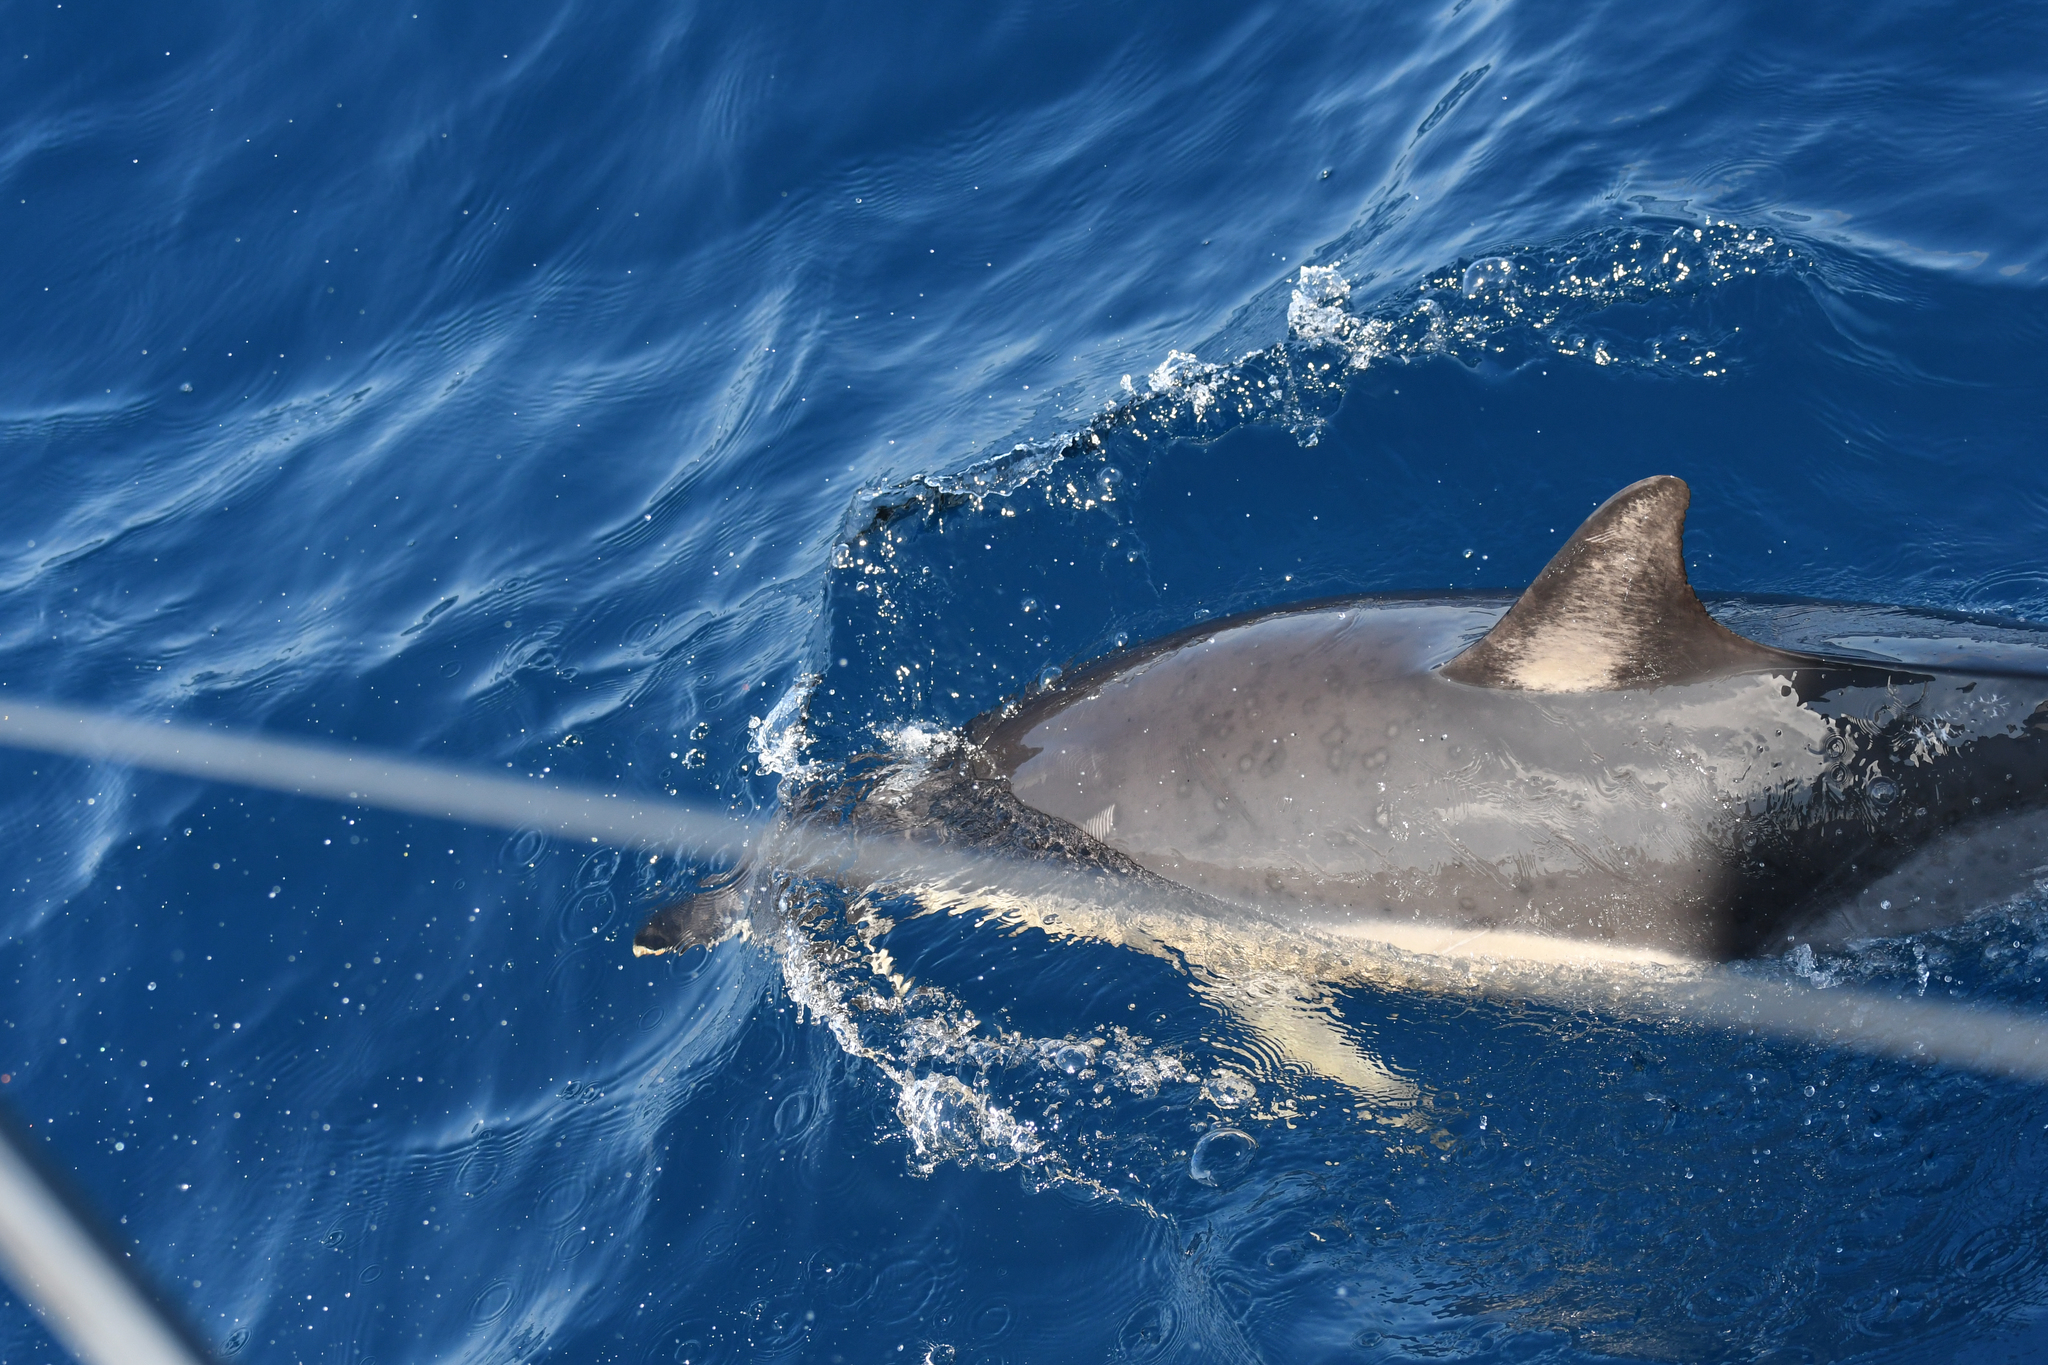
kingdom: Animalia
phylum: Chordata
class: Mammalia
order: Cetacea
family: Delphinidae
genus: Delphinus
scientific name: Delphinus delphis
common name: Common dolphin
